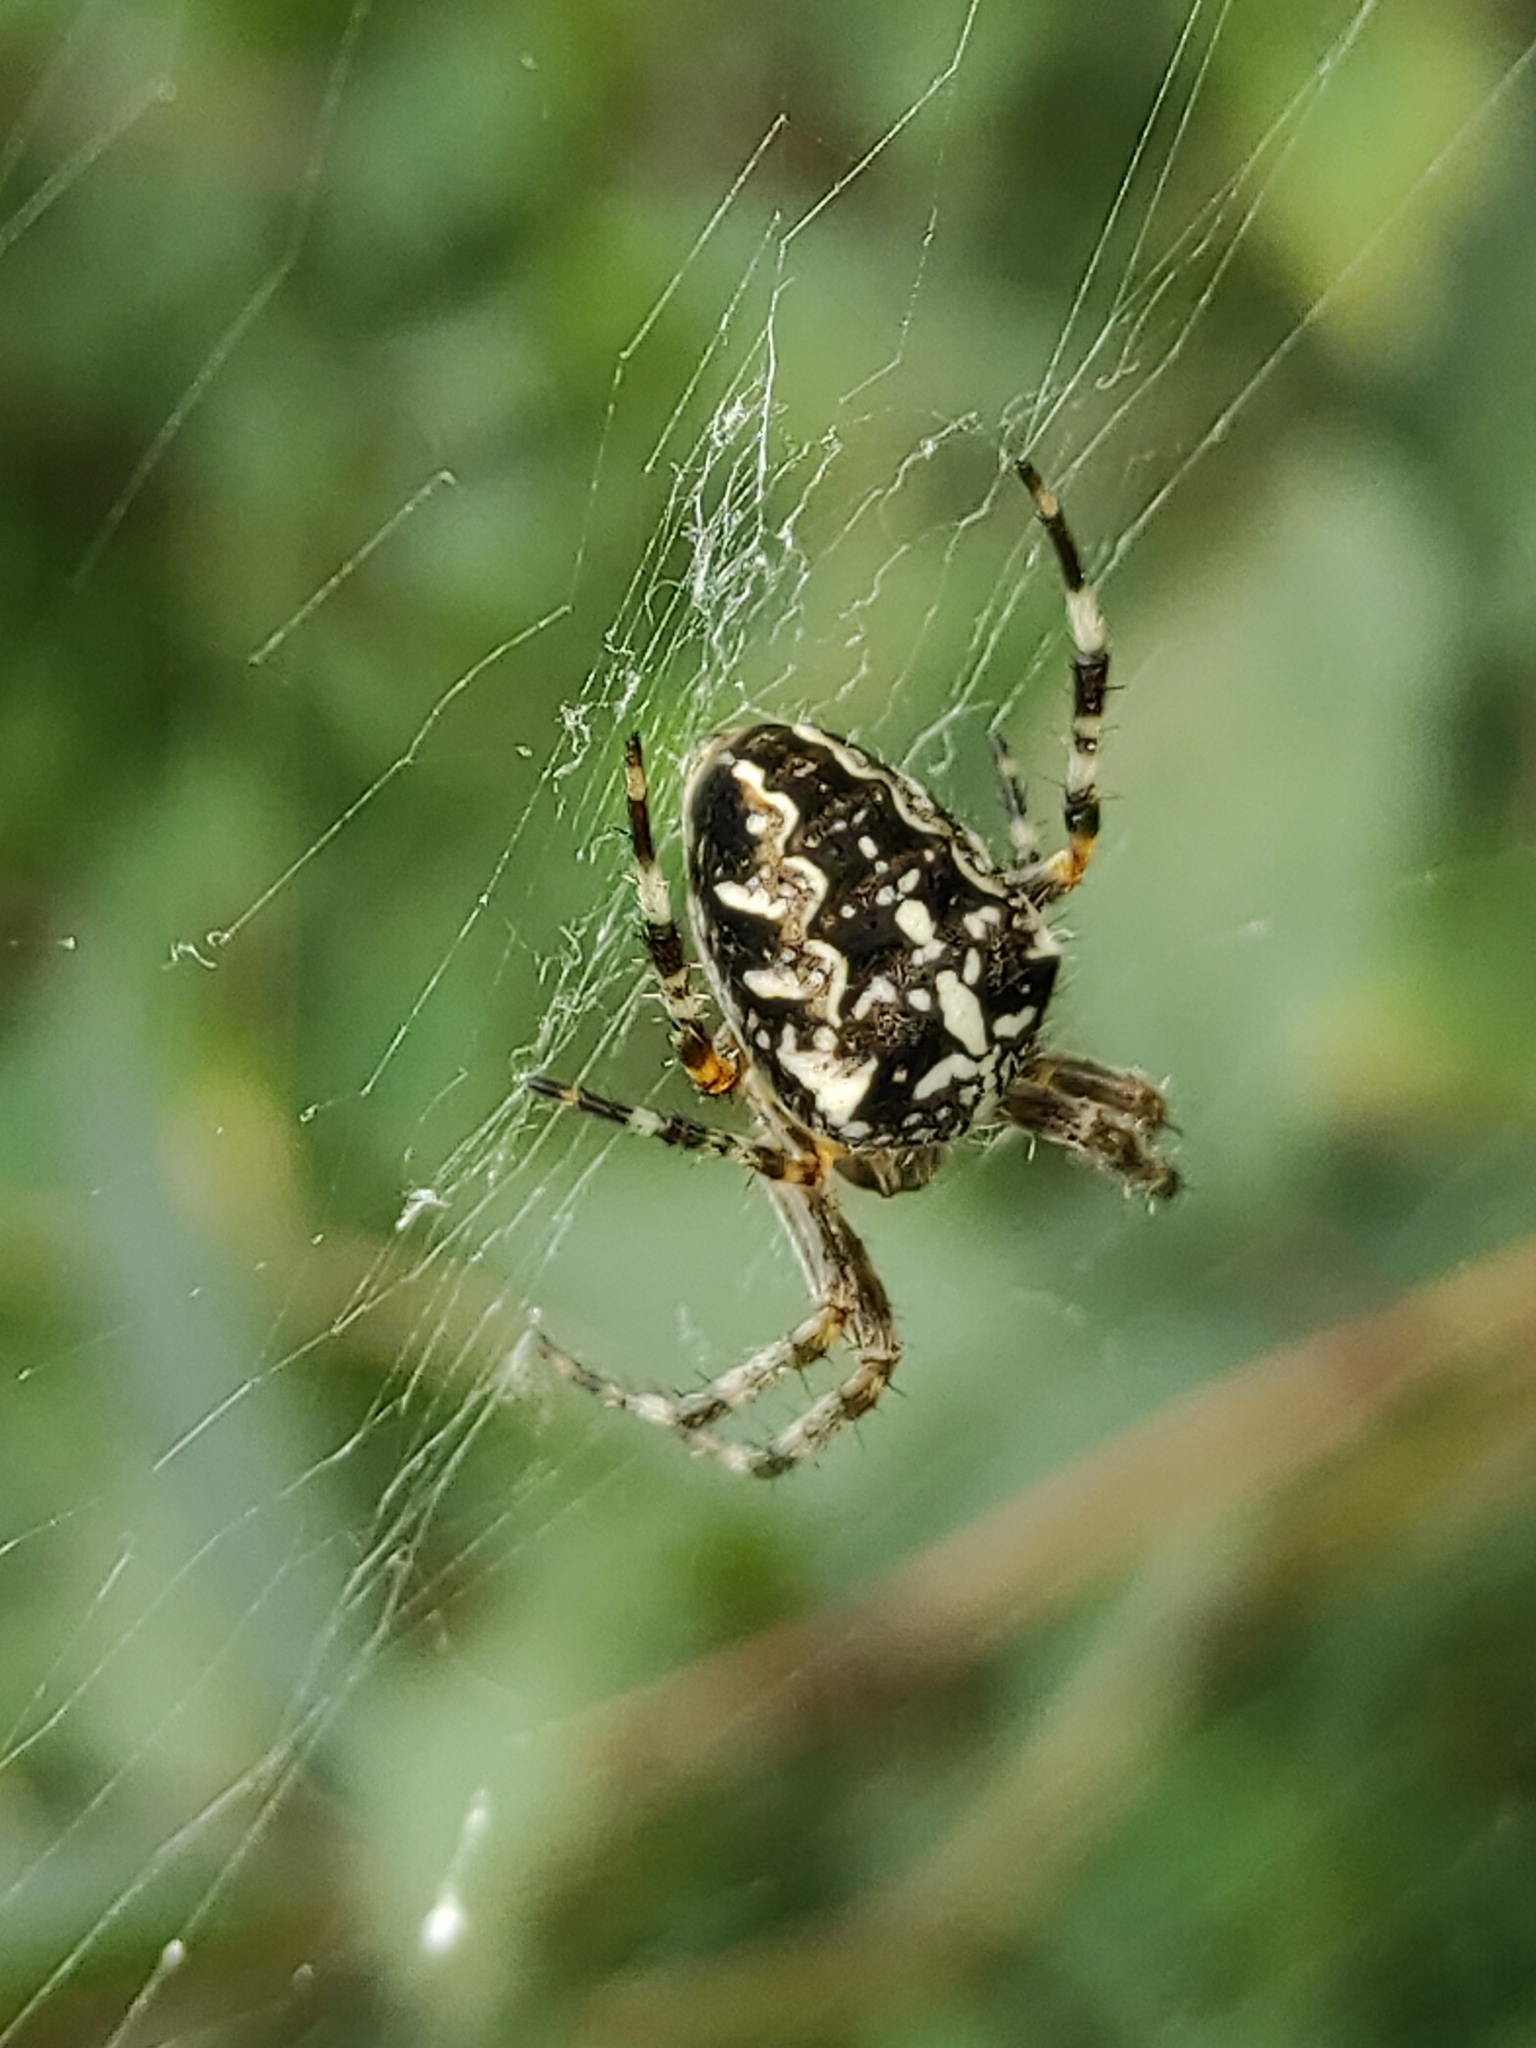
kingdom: Animalia
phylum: Arthropoda
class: Arachnida
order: Araneae
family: Araneidae
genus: Araneus
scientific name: Araneus diadematus
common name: Cross orbweaver
